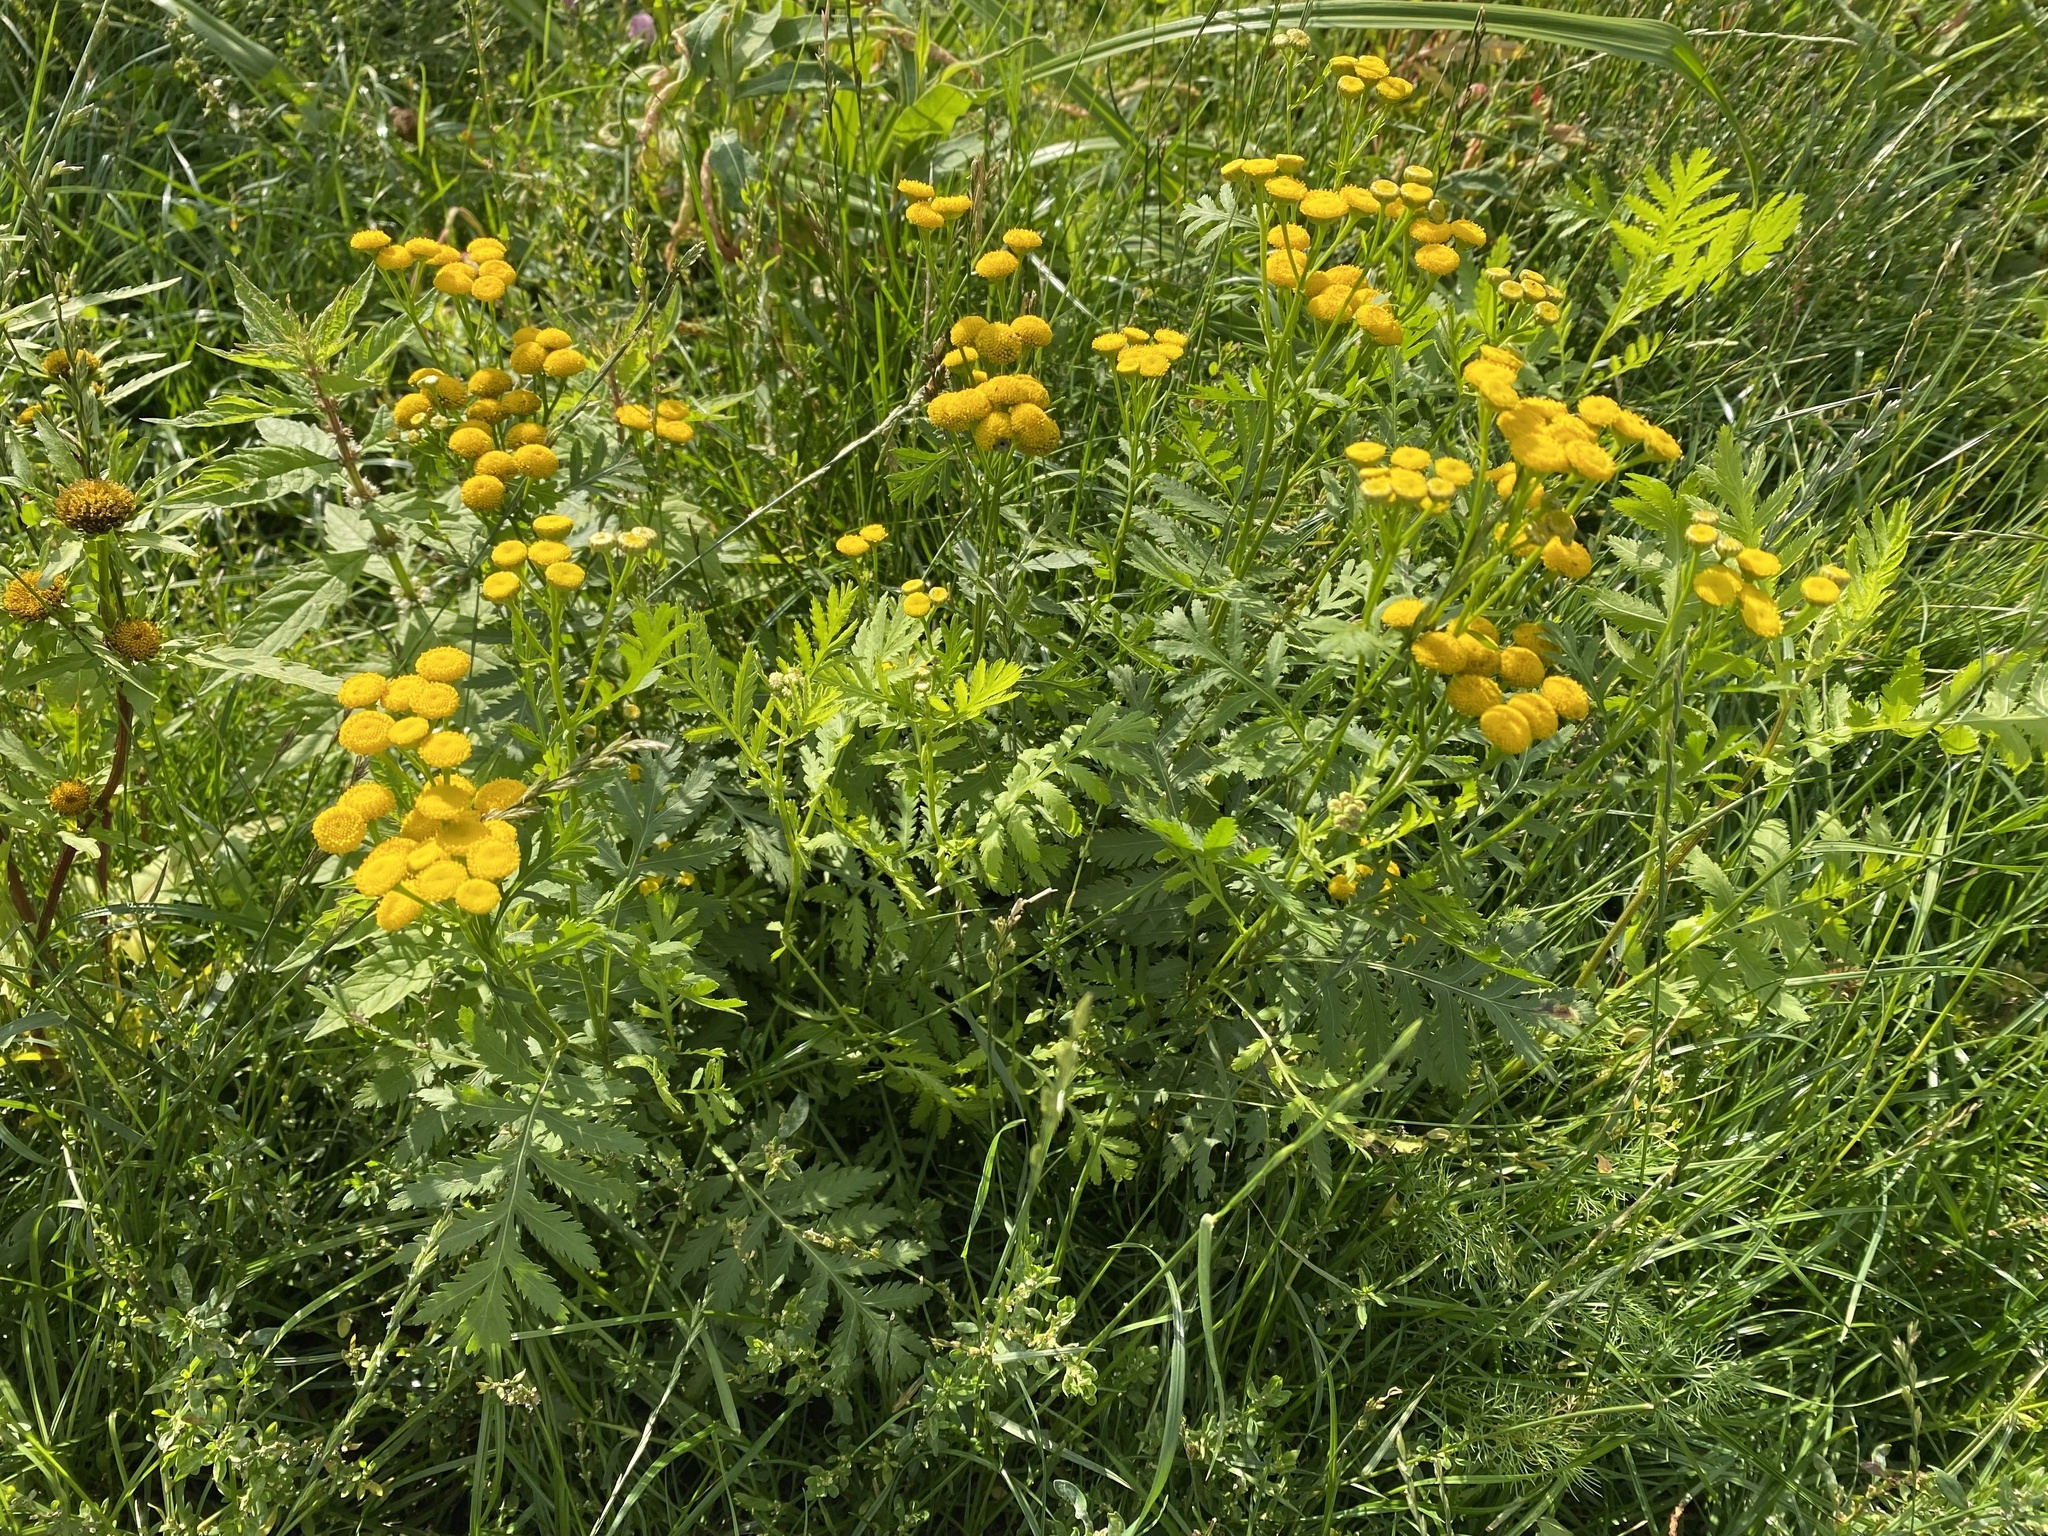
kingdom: Plantae
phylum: Tracheophyta
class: Magnoliopsida
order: Asterales
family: Asteraceae
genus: Tanacetum
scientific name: Tanacetum vulgare
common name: Common tansy
